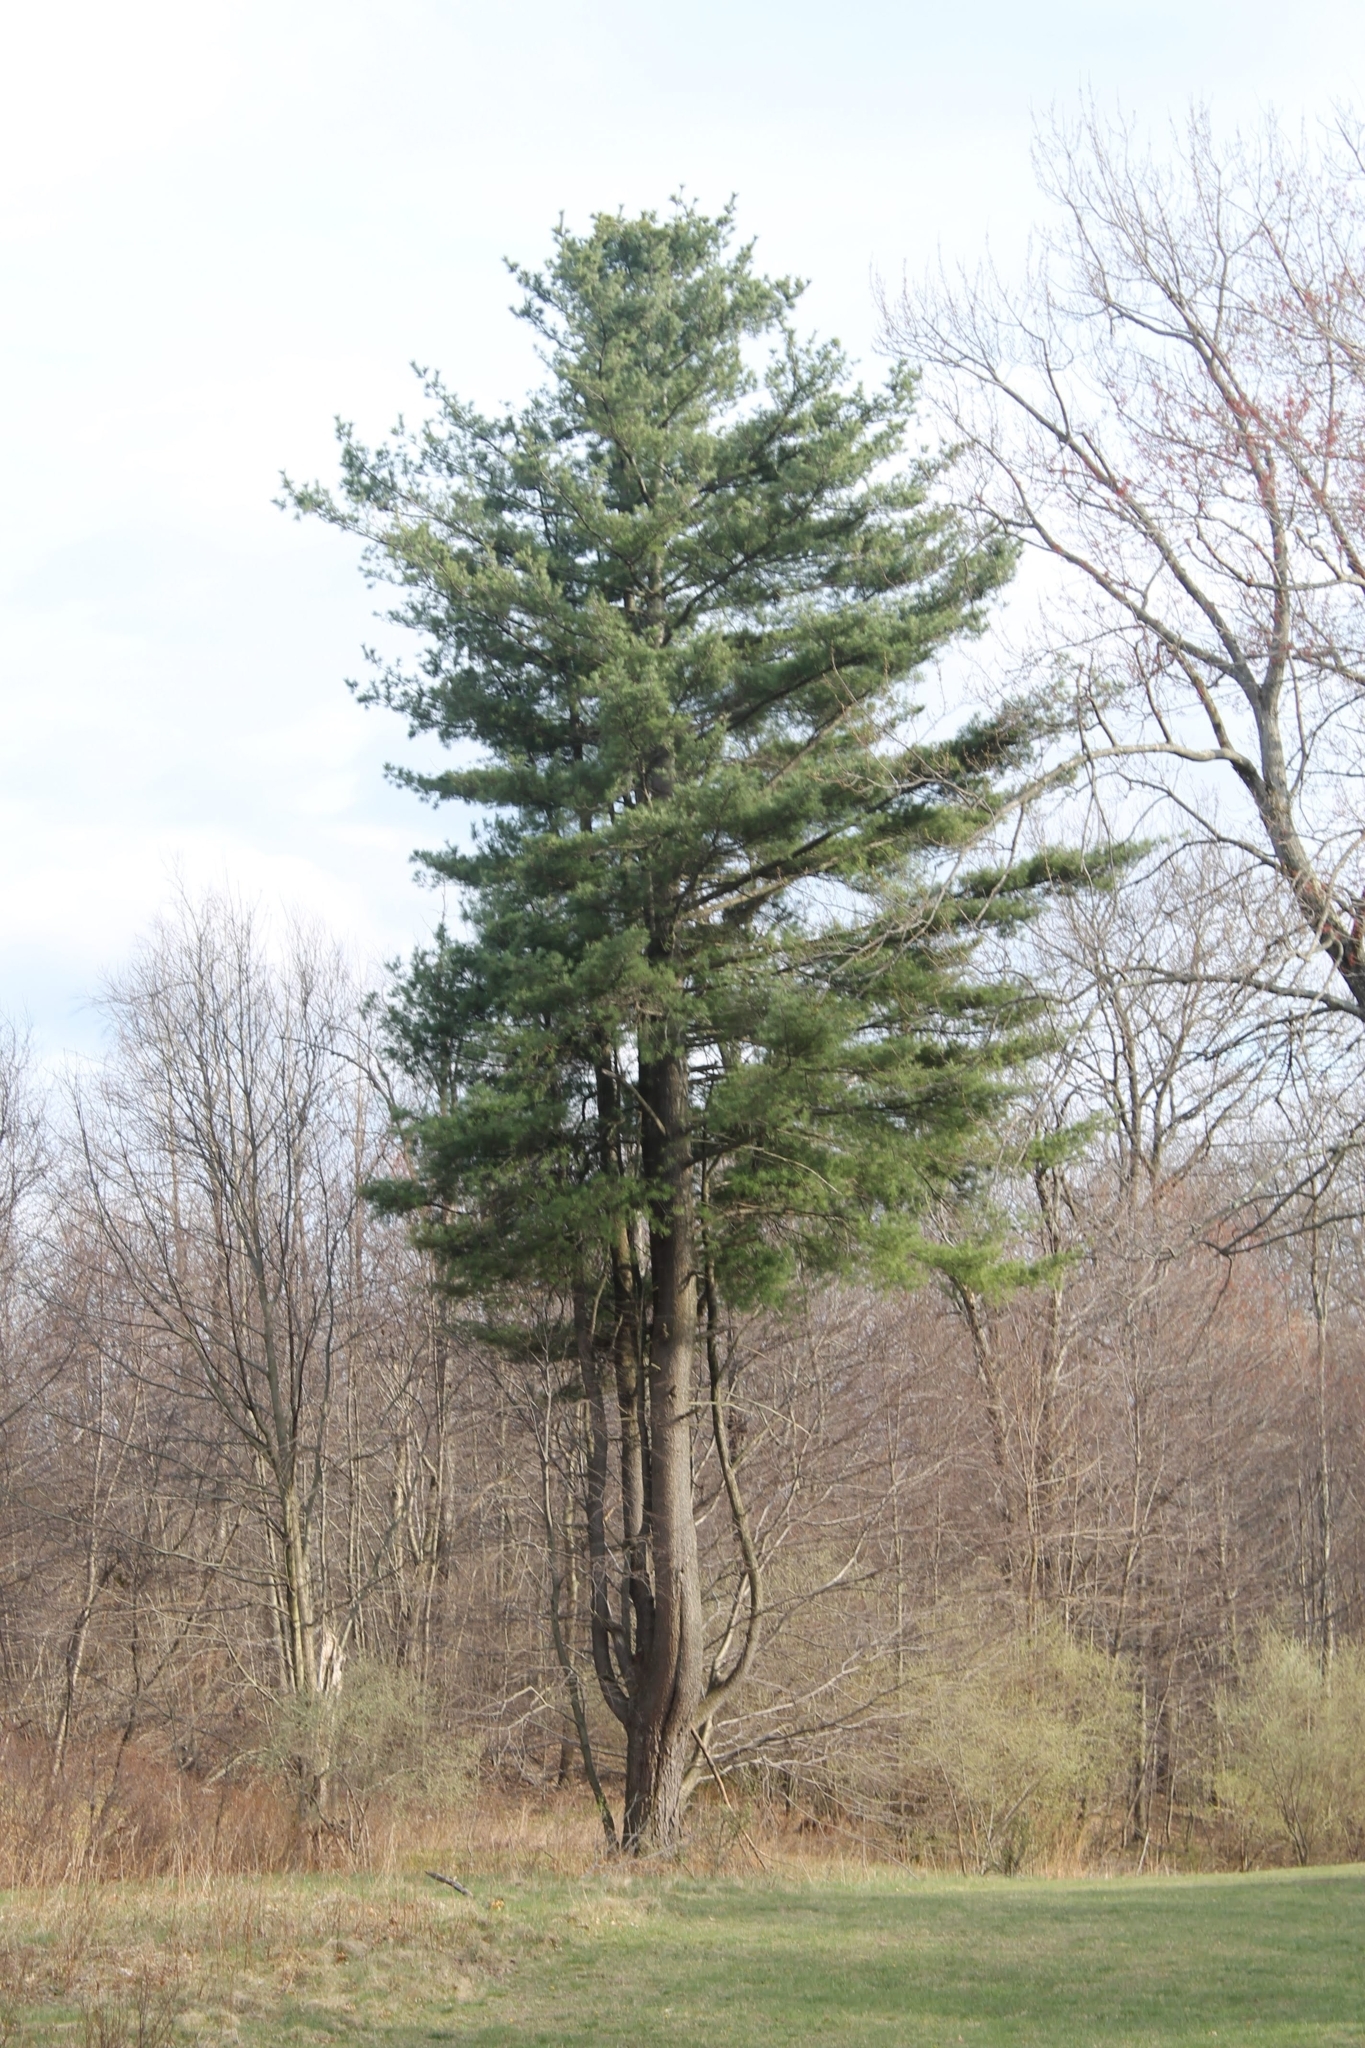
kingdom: Plantae
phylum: Tracheophyta
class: Pinopsida
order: Pinales
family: Pinaceae
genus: Pinus
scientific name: Pinus strobus
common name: Weymouth pine
